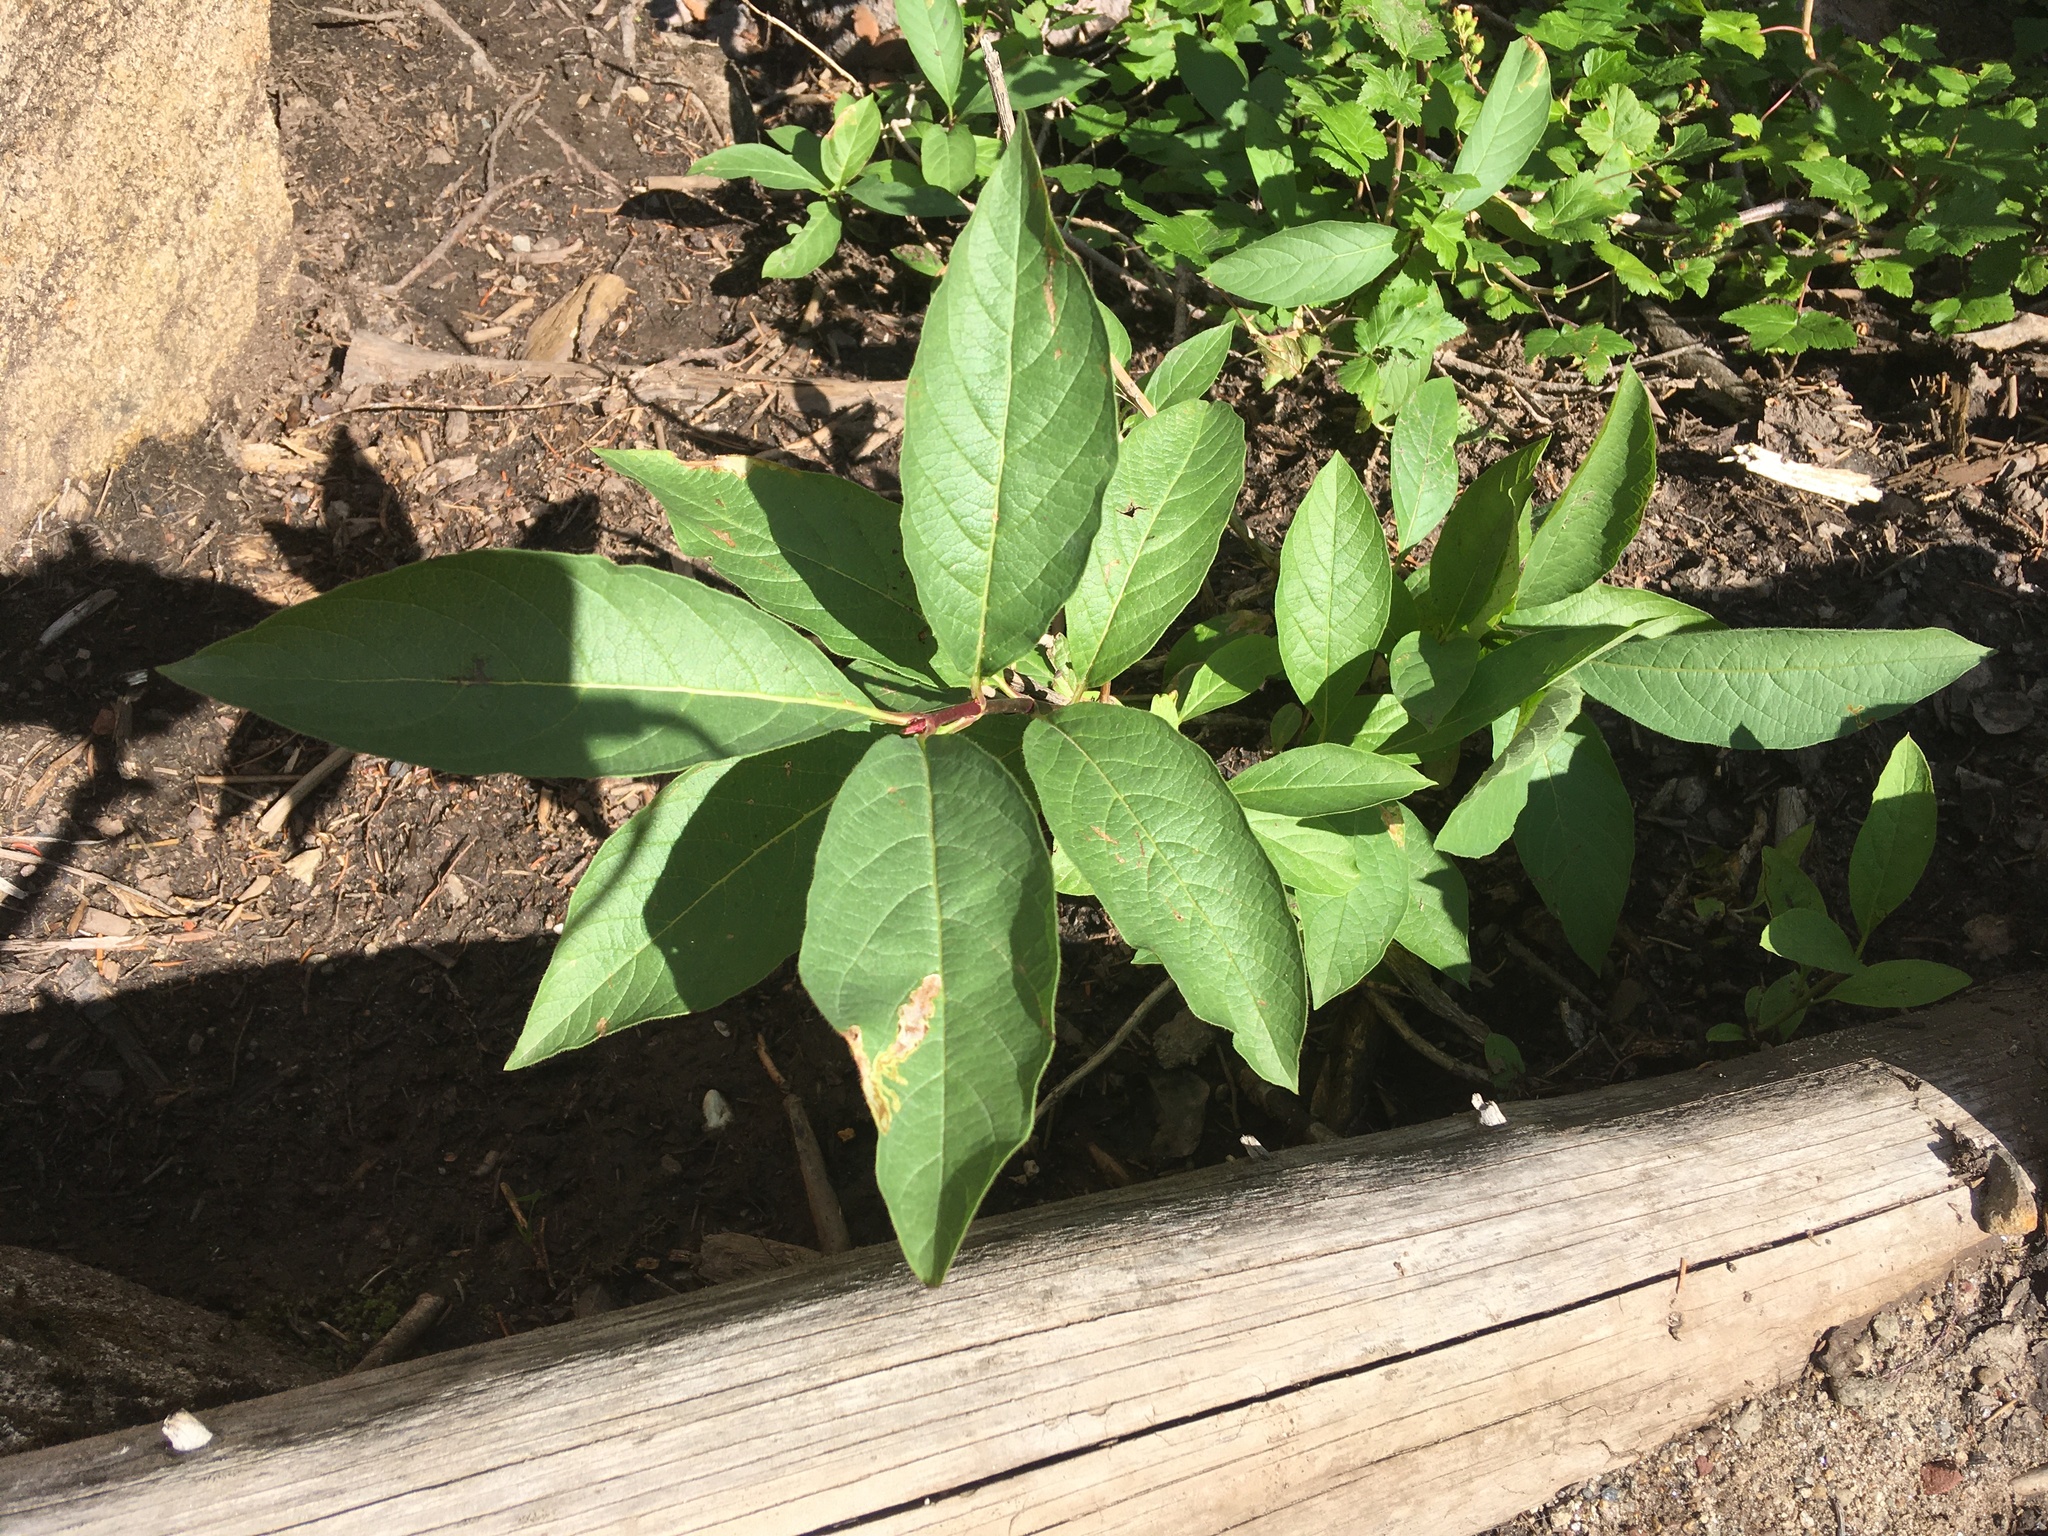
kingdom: Plantae
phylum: Tracheophyta
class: Magnoliopsida
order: Dipsacales
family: Caprifoliaceae
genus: Lonicera
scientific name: Lonicera involucrata
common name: Californian honeysuckle
